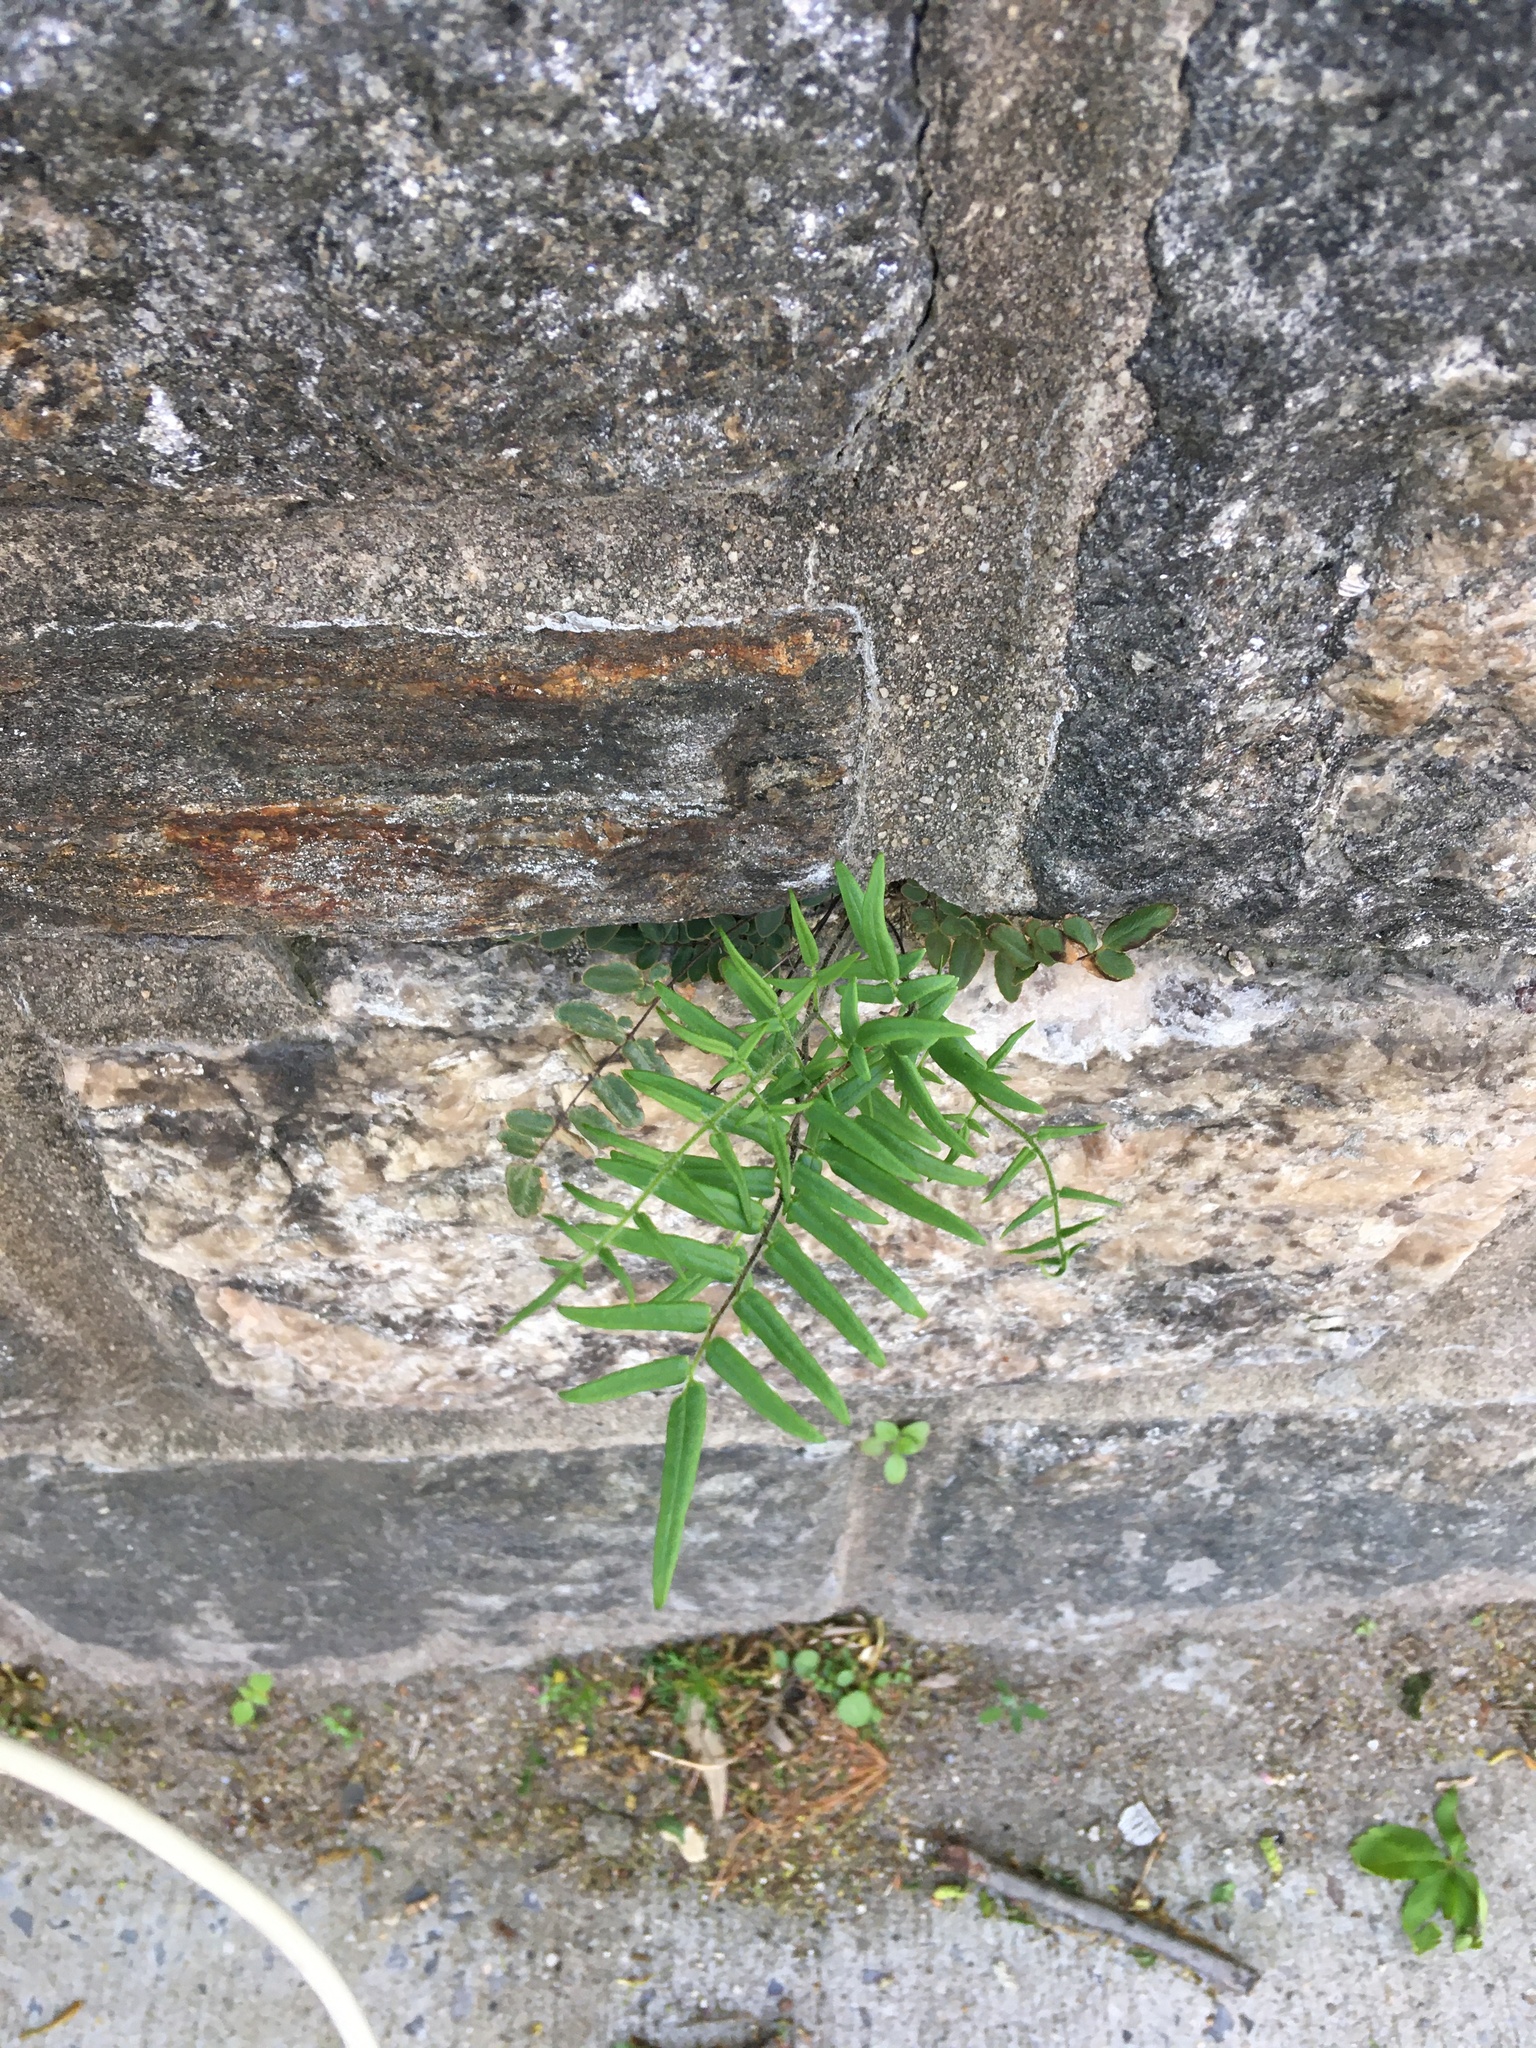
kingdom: Plantae
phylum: Tracheophyta
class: Polypodiopsida
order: Polypodiales
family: Pteridaceae
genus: Pellaea
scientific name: Pellaea atropurpurea
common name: Hairy cliffbrake
